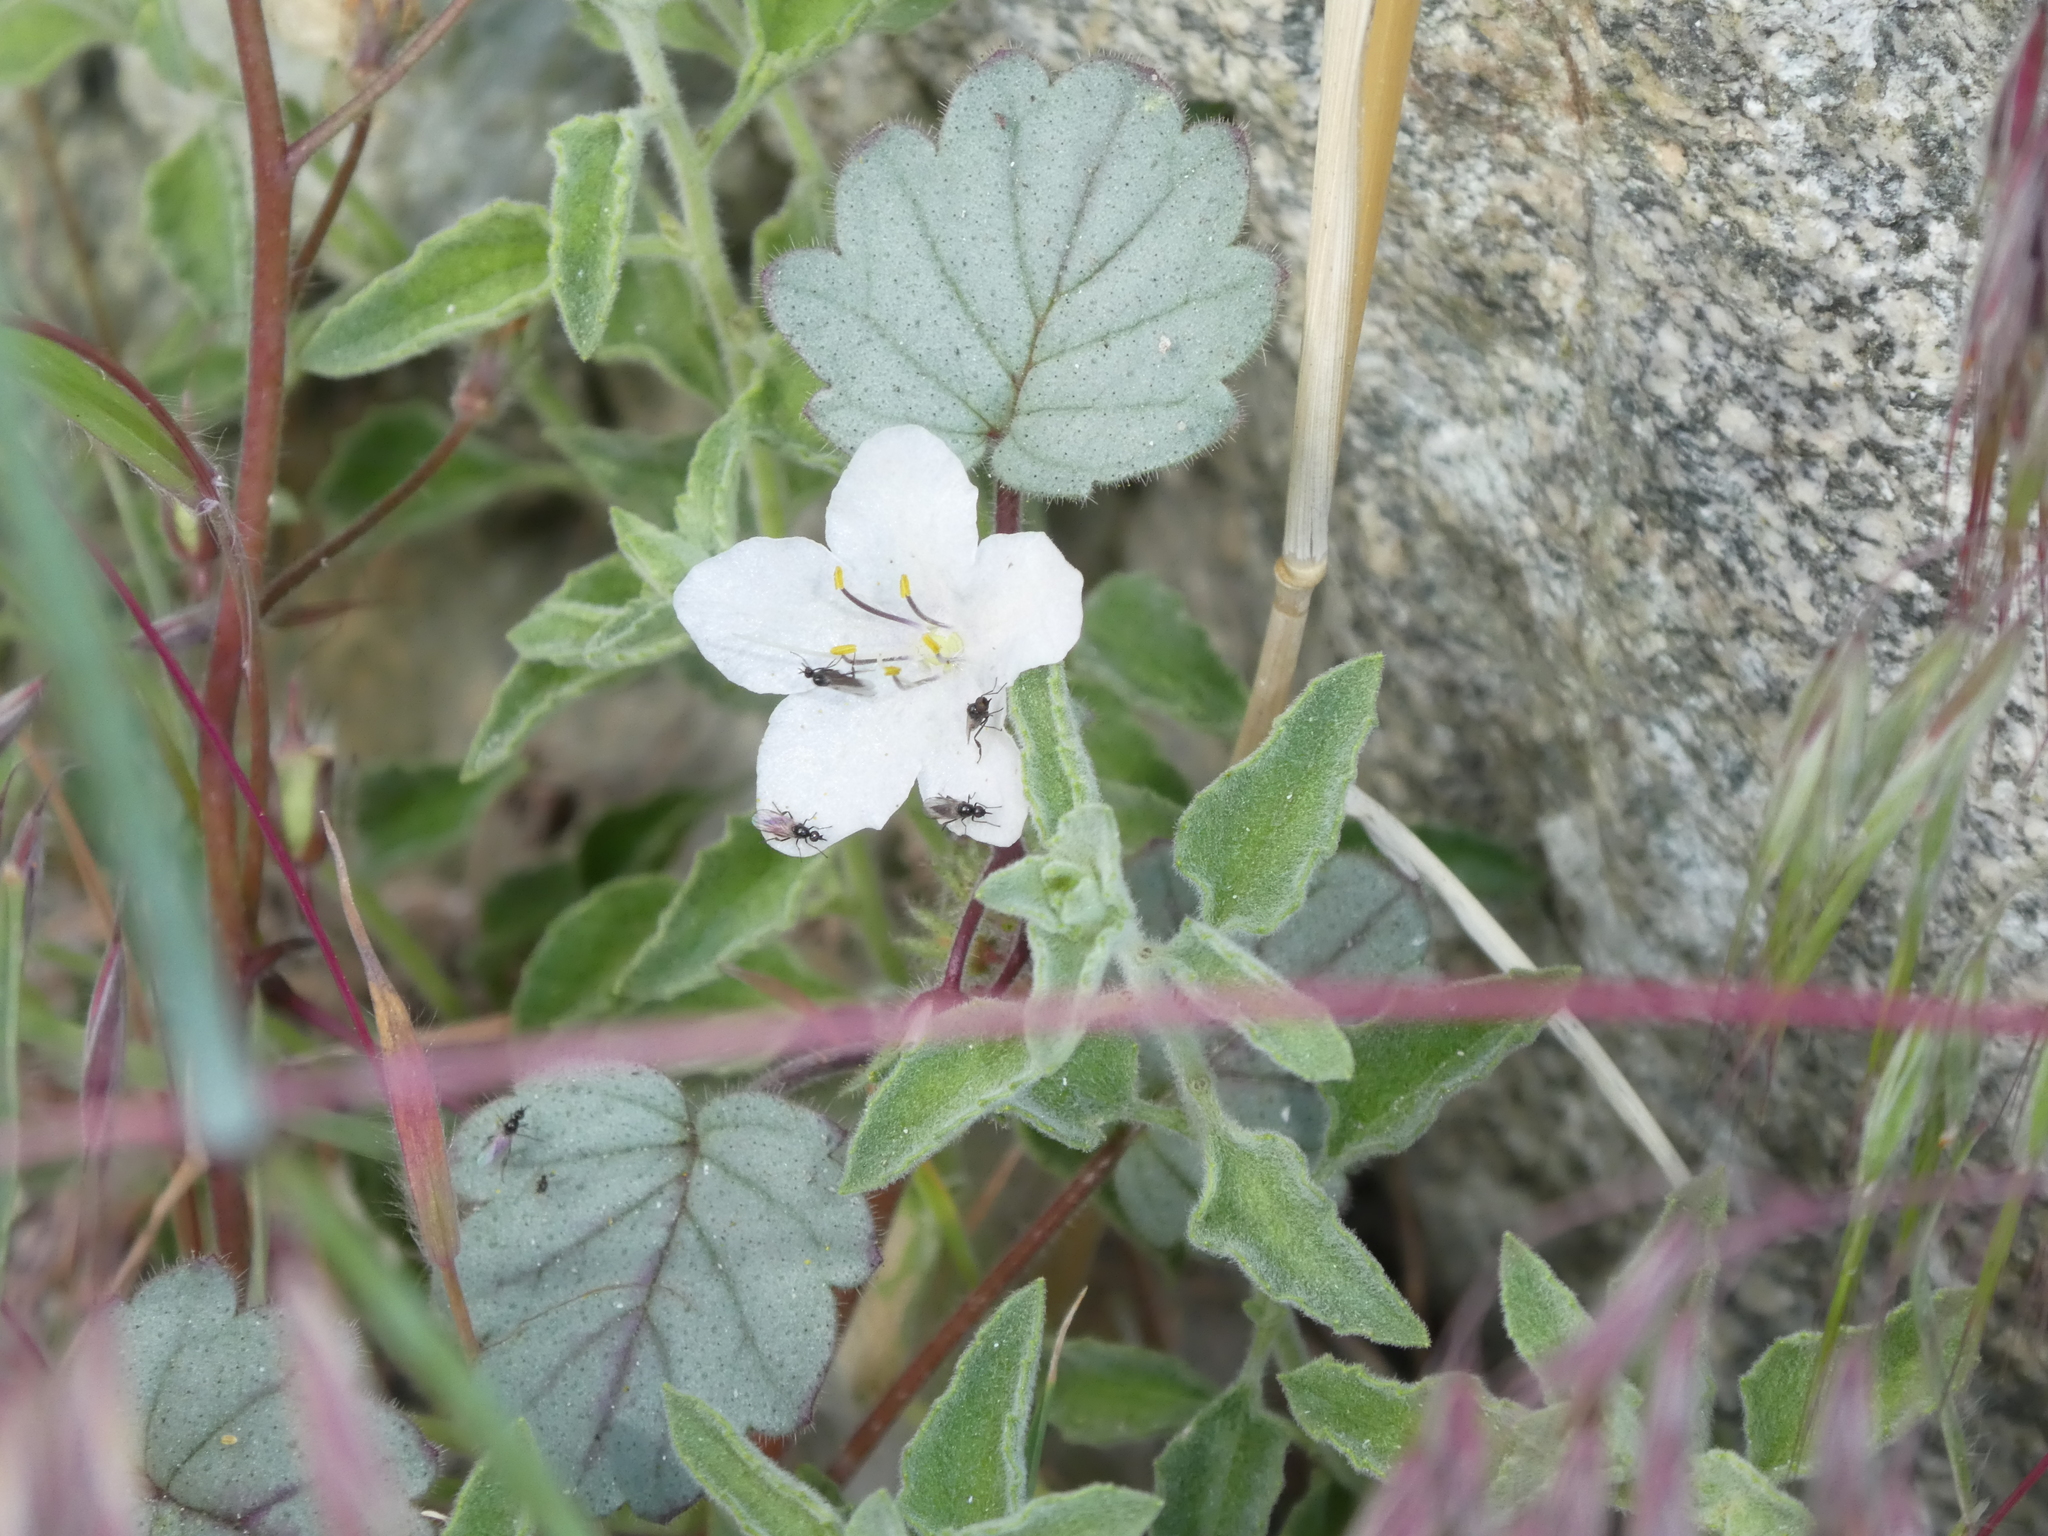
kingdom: Plantae
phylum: Tracheophyta
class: Magnoliopsida
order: Boraginales
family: Hydrophyllaceae
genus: Phacelia
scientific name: Phacelia longipes
